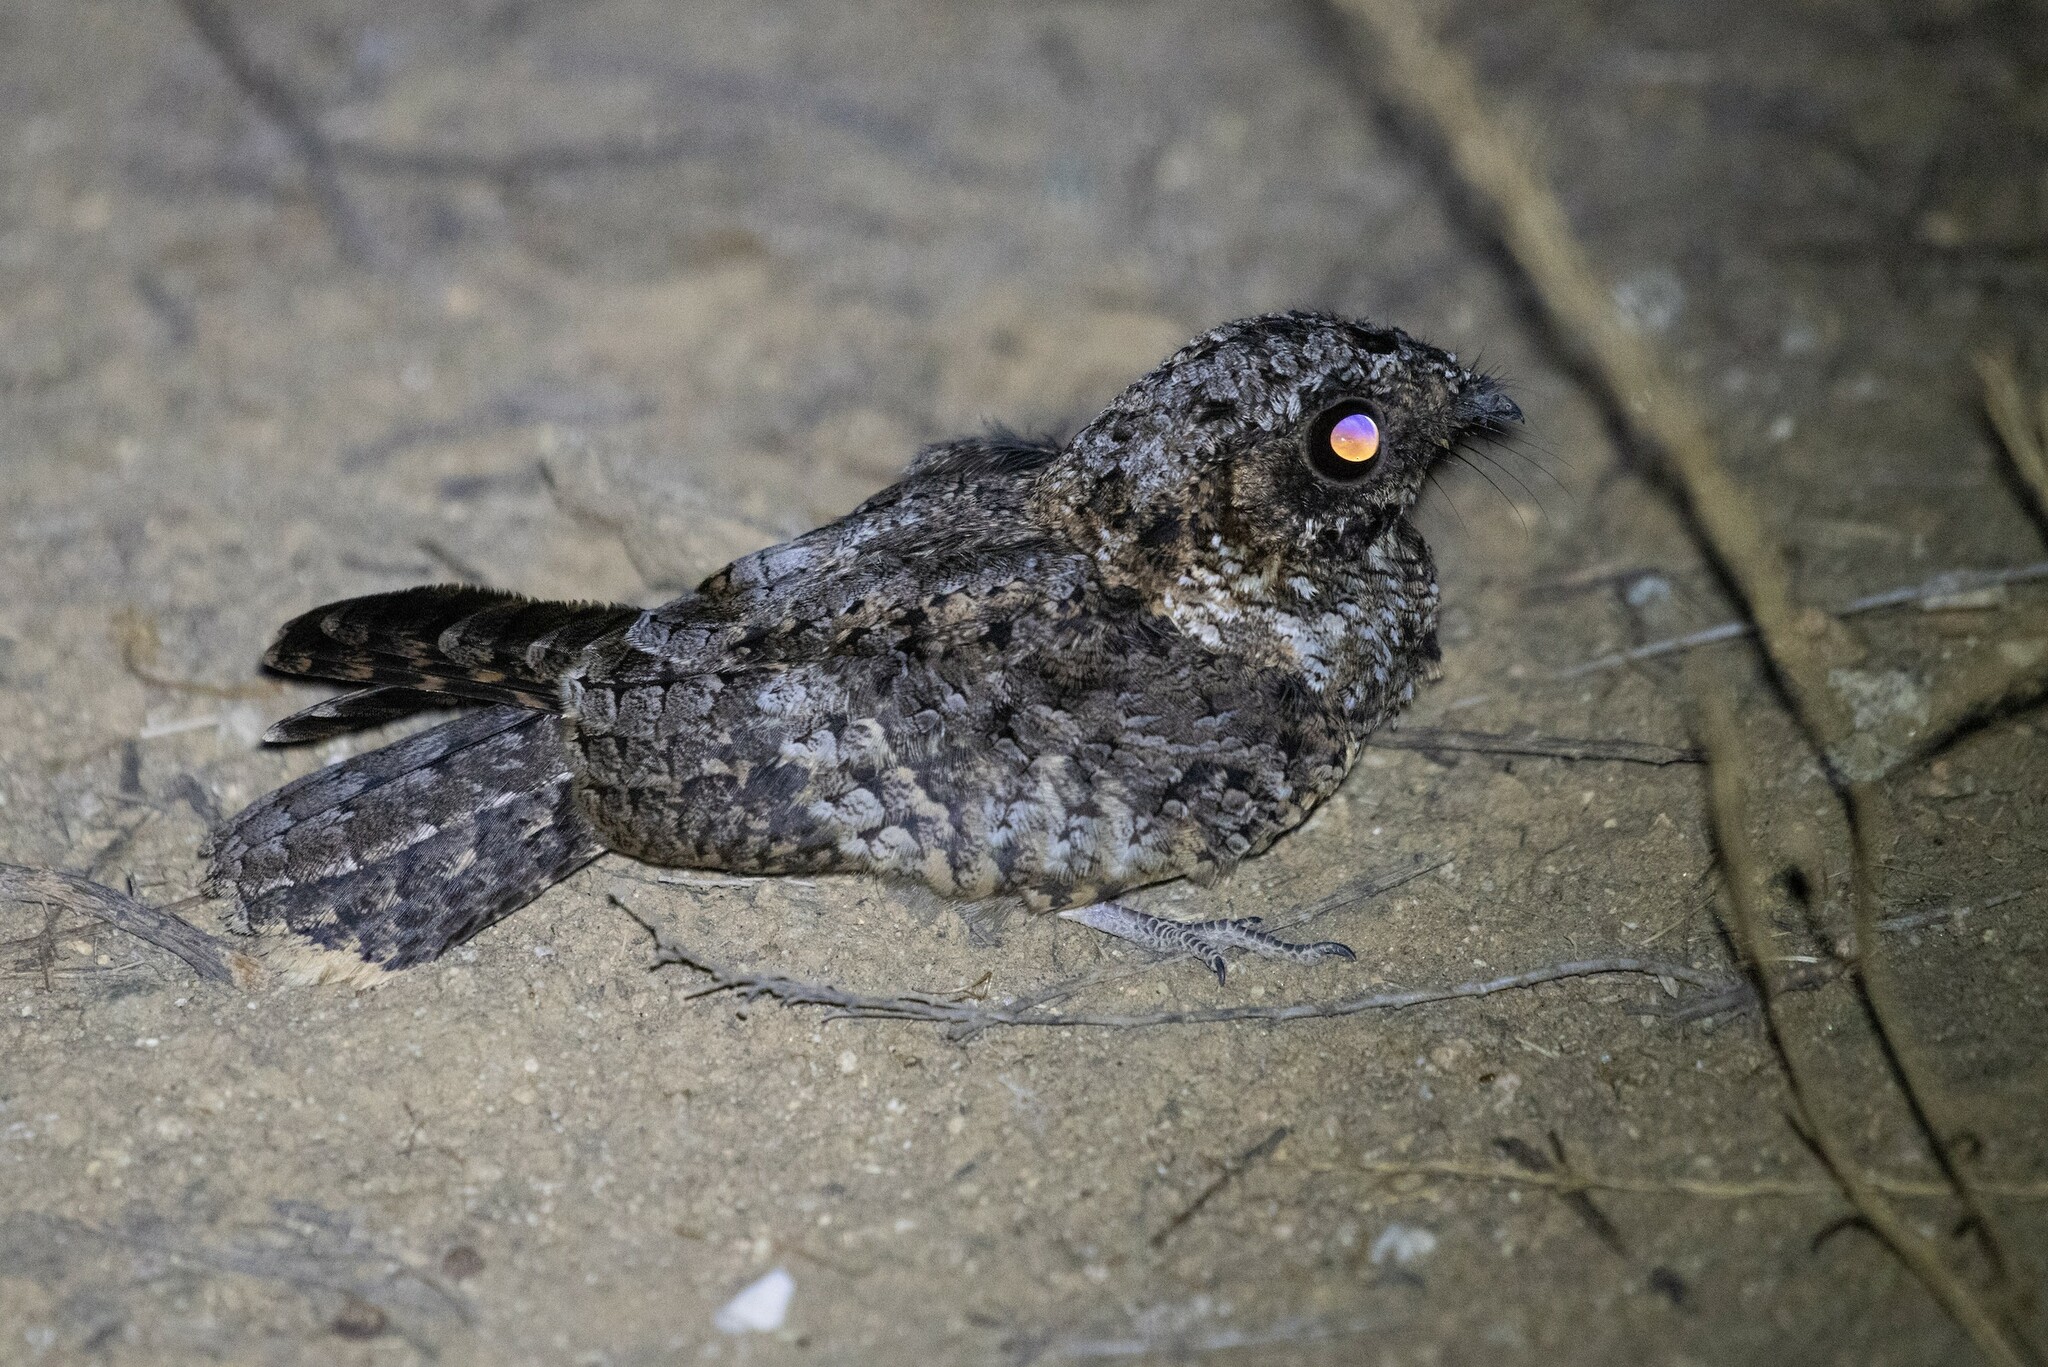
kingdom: Animalia
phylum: Chordata
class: Aves
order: Caprimulgiformes
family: Caprimulgidae
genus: Phalaenoptilus
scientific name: Phalaenoptilus nuttallii
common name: Common poorwill
